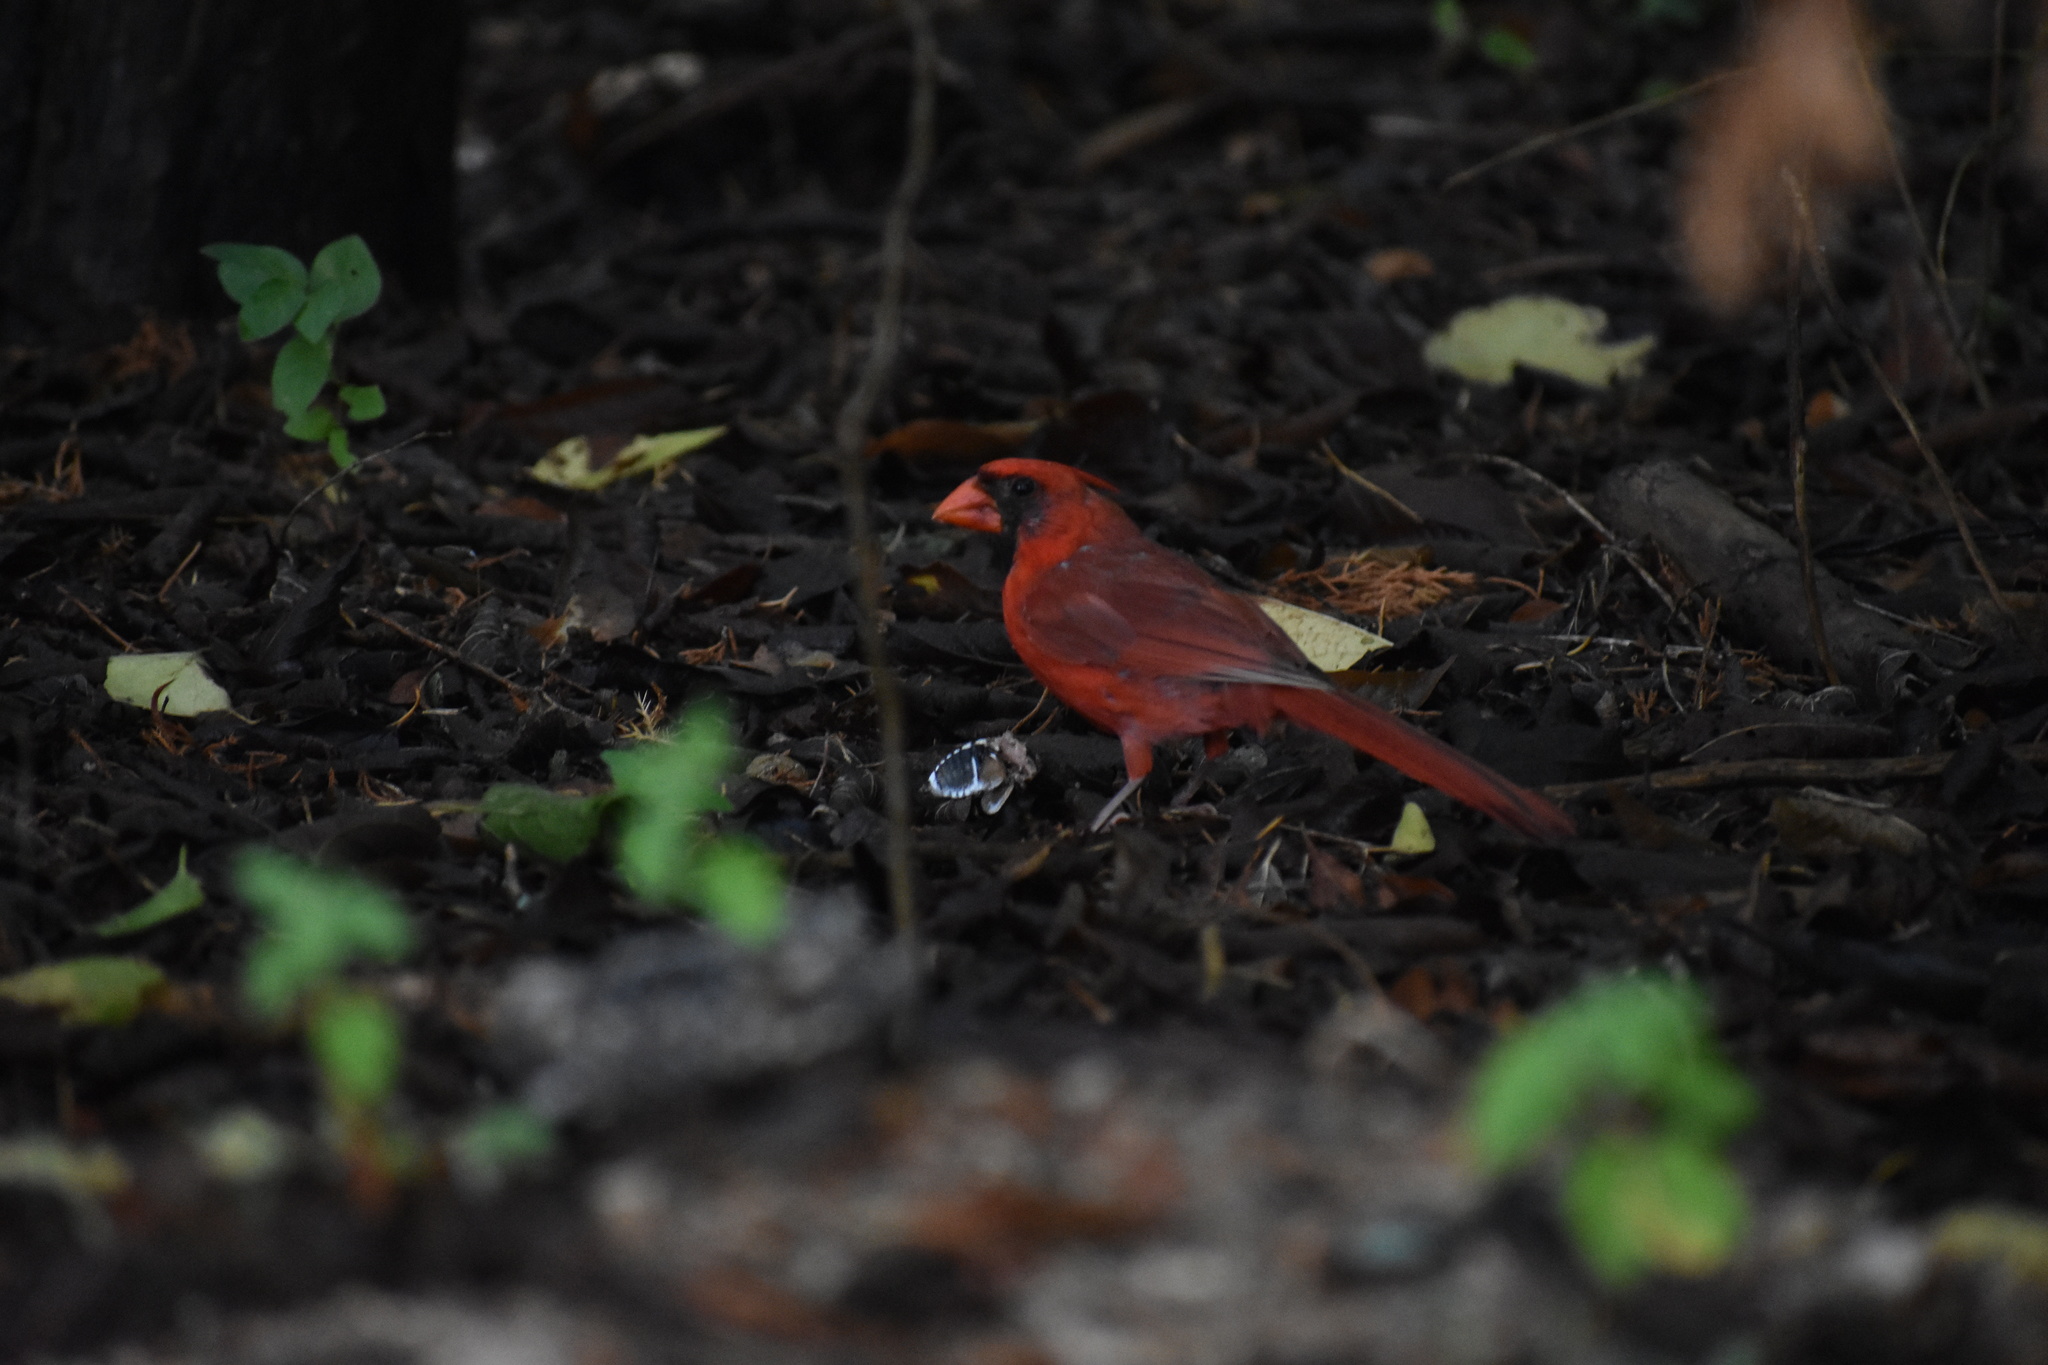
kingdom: Animalia
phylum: Chordata
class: Aves
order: Passeriformes
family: Cardinalidae
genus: Cardinalis
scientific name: Cardinalis cardinalis
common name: Northern cardinal
